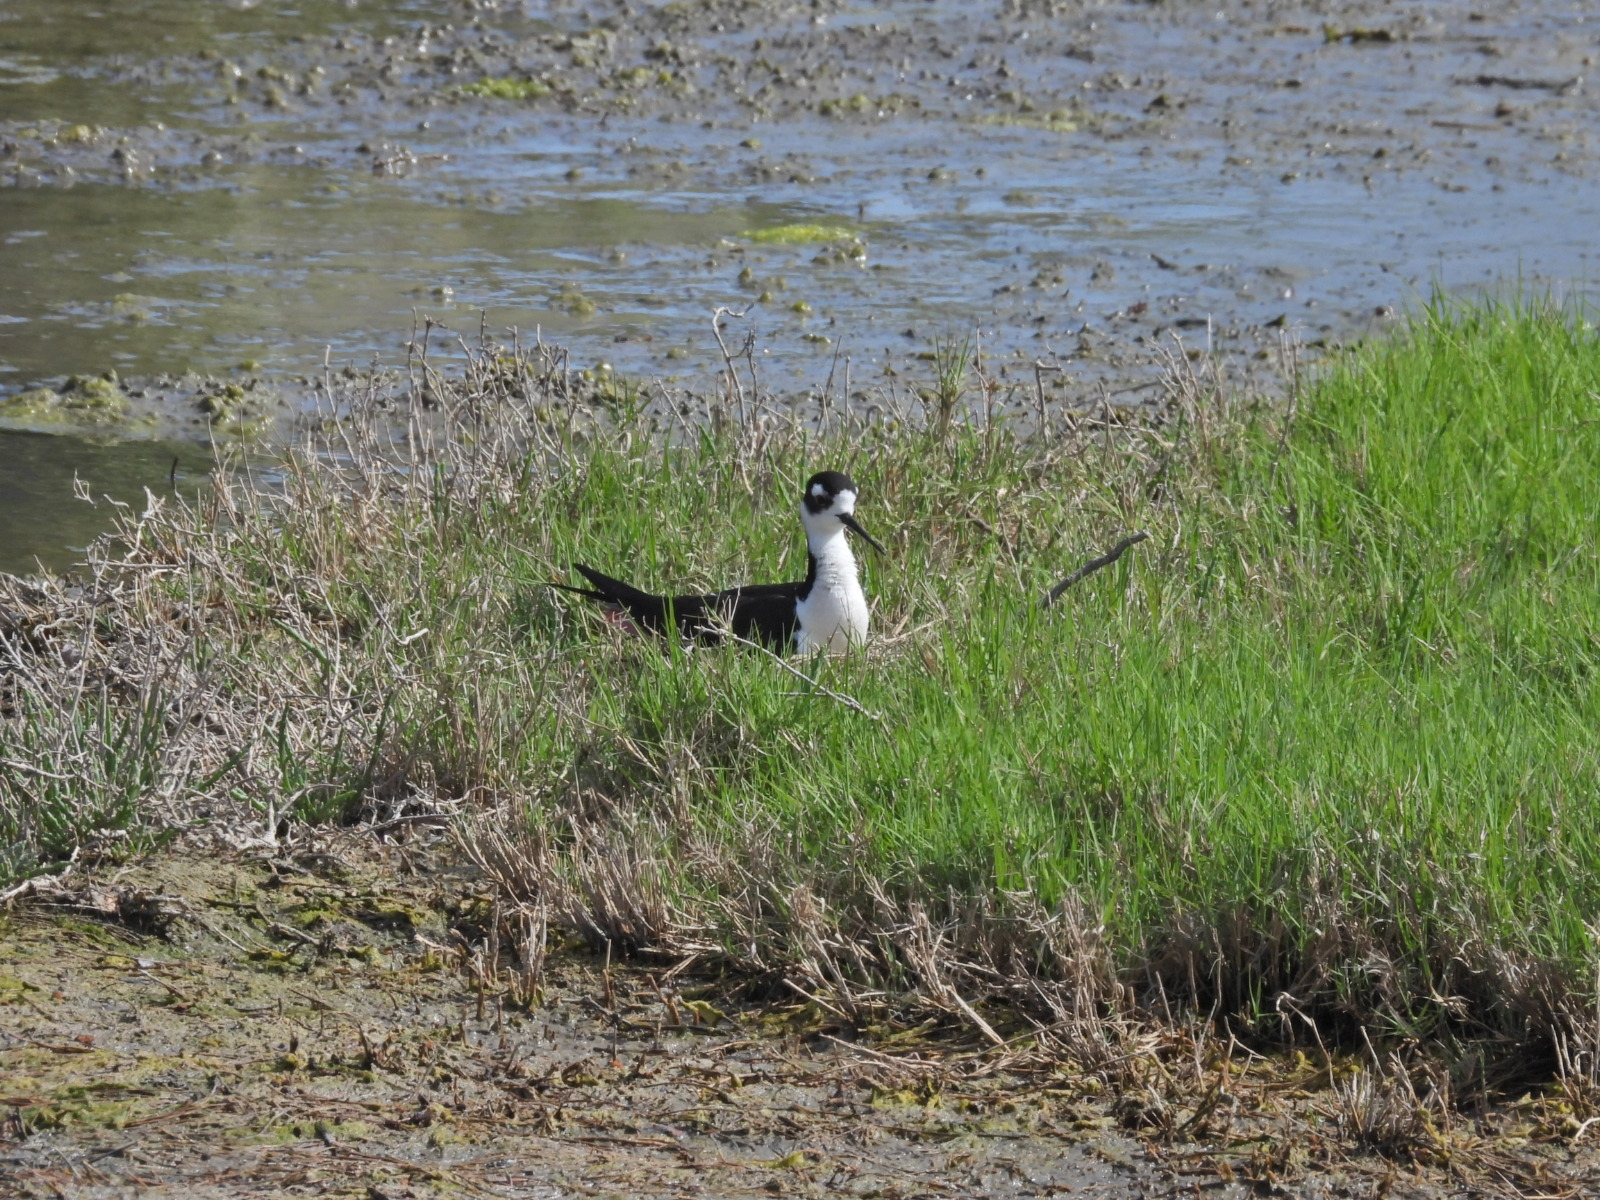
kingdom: Animalia
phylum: Chordata
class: Aves
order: Charadriiformes
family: Recurvirostridae
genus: Himantopus
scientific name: Himantopus mexicanus
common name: Black-necked stilt
